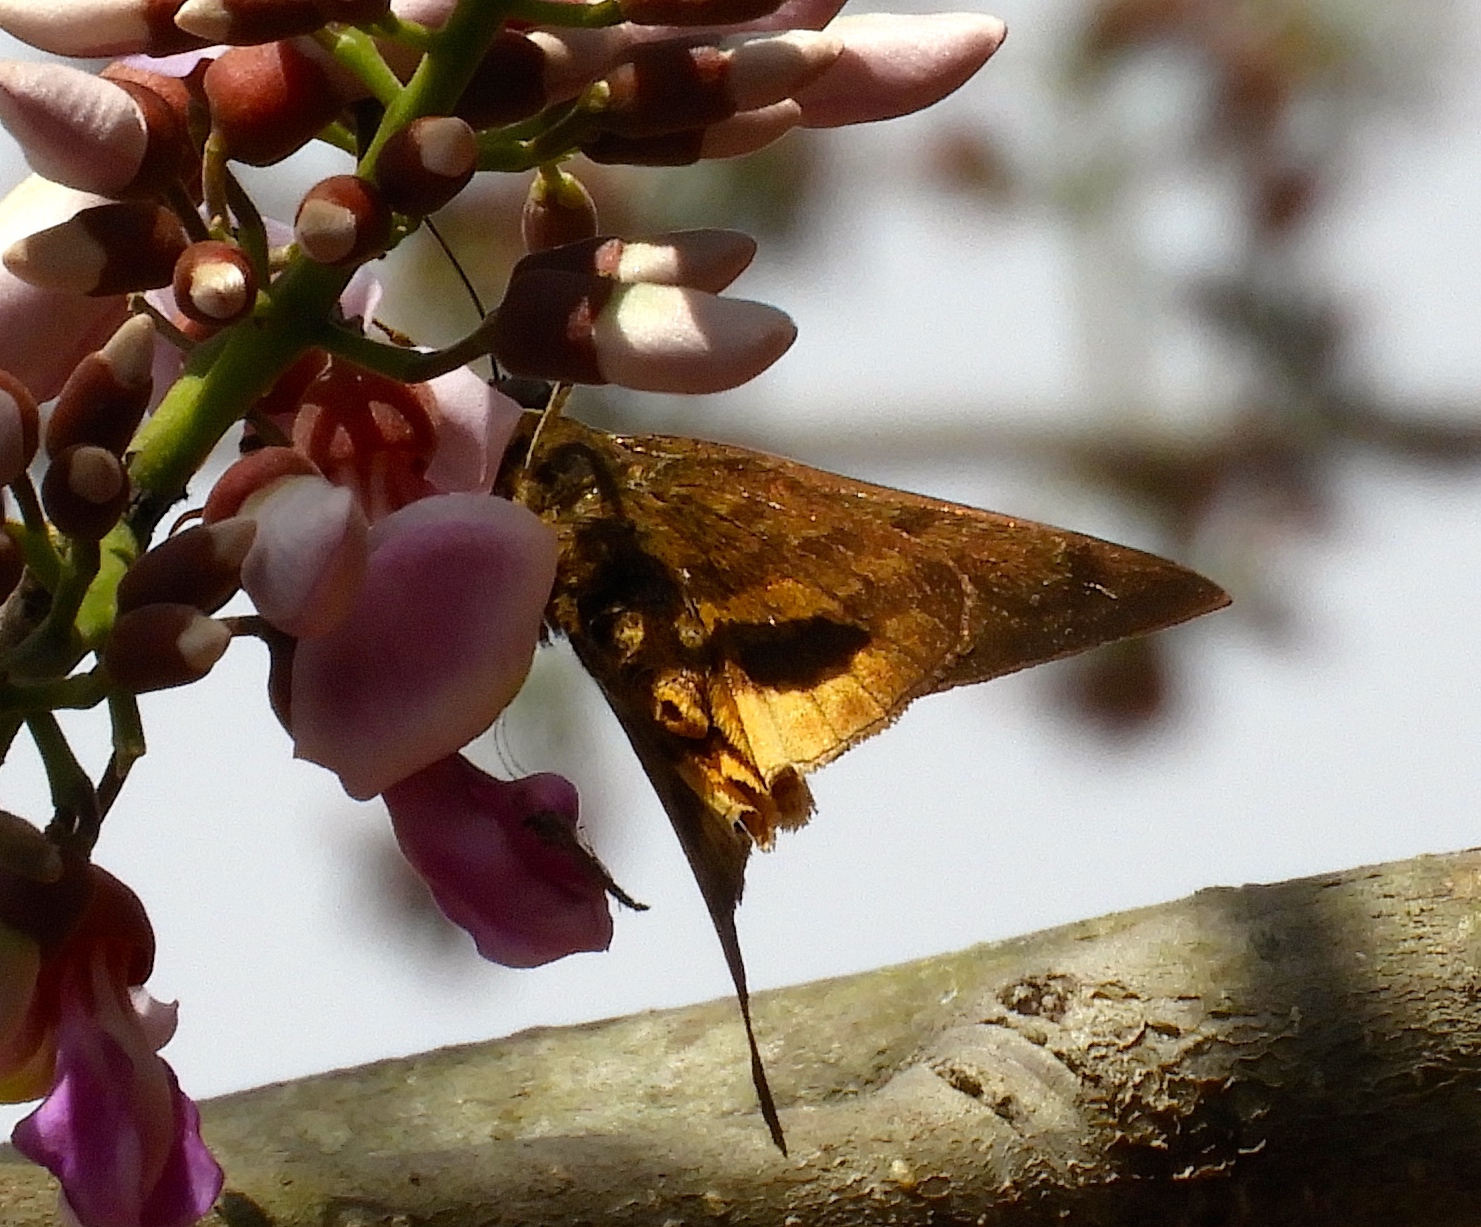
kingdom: Animalia
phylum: Arthropoda
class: Insecta
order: Lepidoptera
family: Hesperiidae
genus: Astraptes
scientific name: Astraptes anaphus
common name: Yellow-tipped flasher
